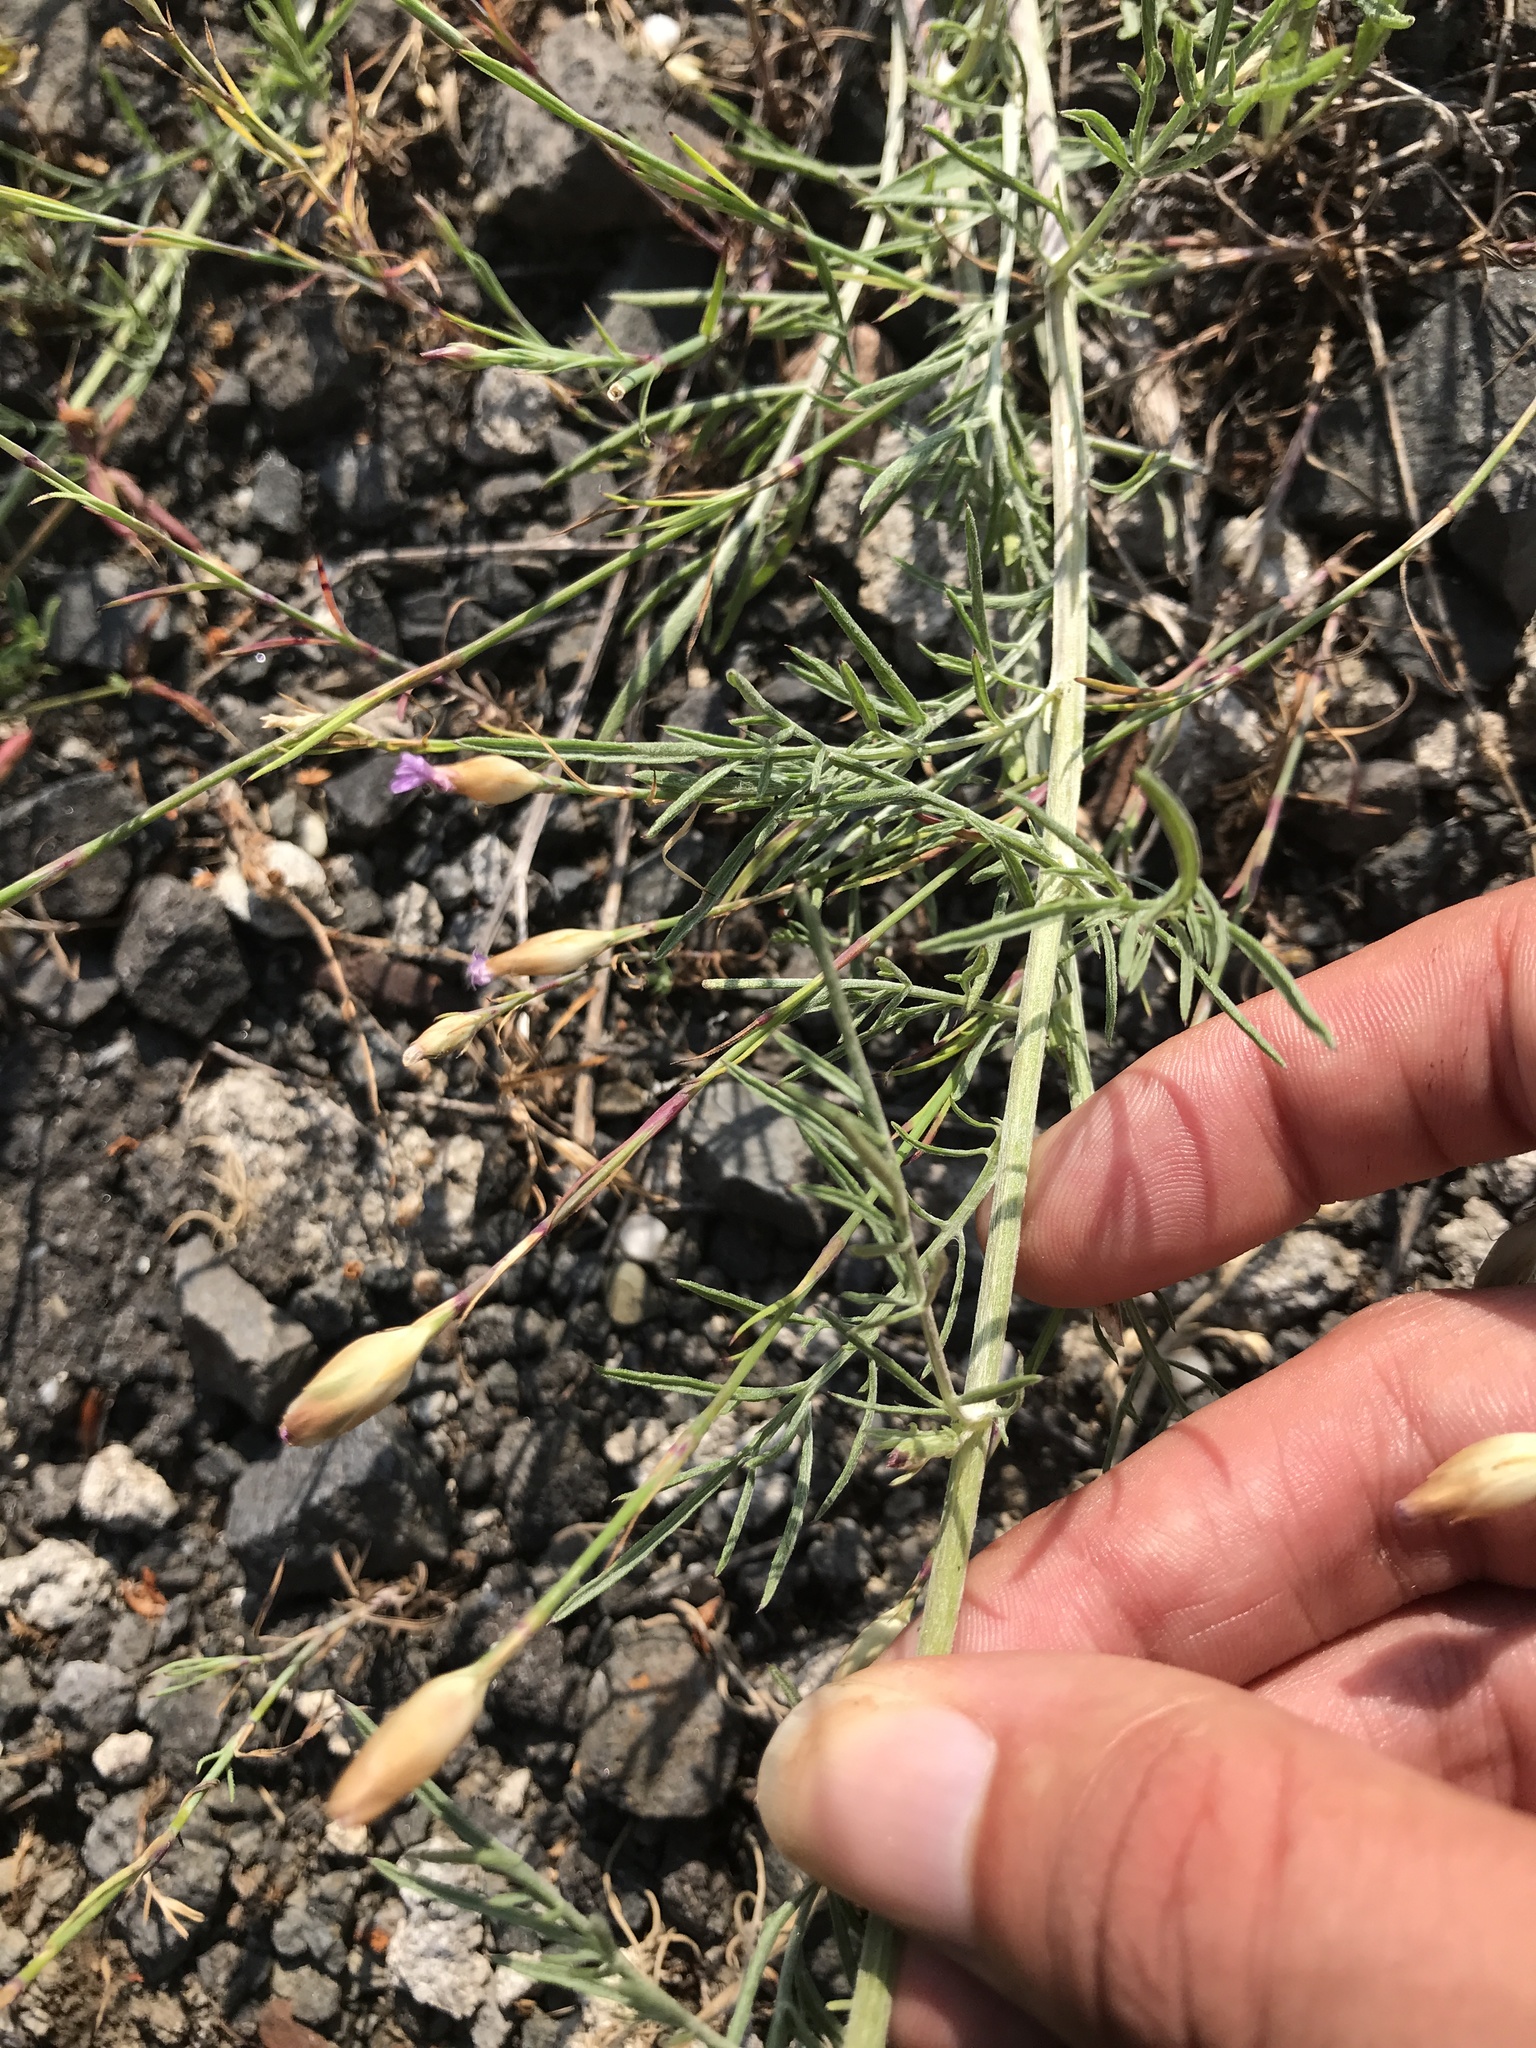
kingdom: Plantae
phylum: Tracheophyta
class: Magnoliopsida
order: Caryophyllales
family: Caryophyllaceae
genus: Petrorhagia
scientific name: Petrorhagia saxifraga
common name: Tunicflower
